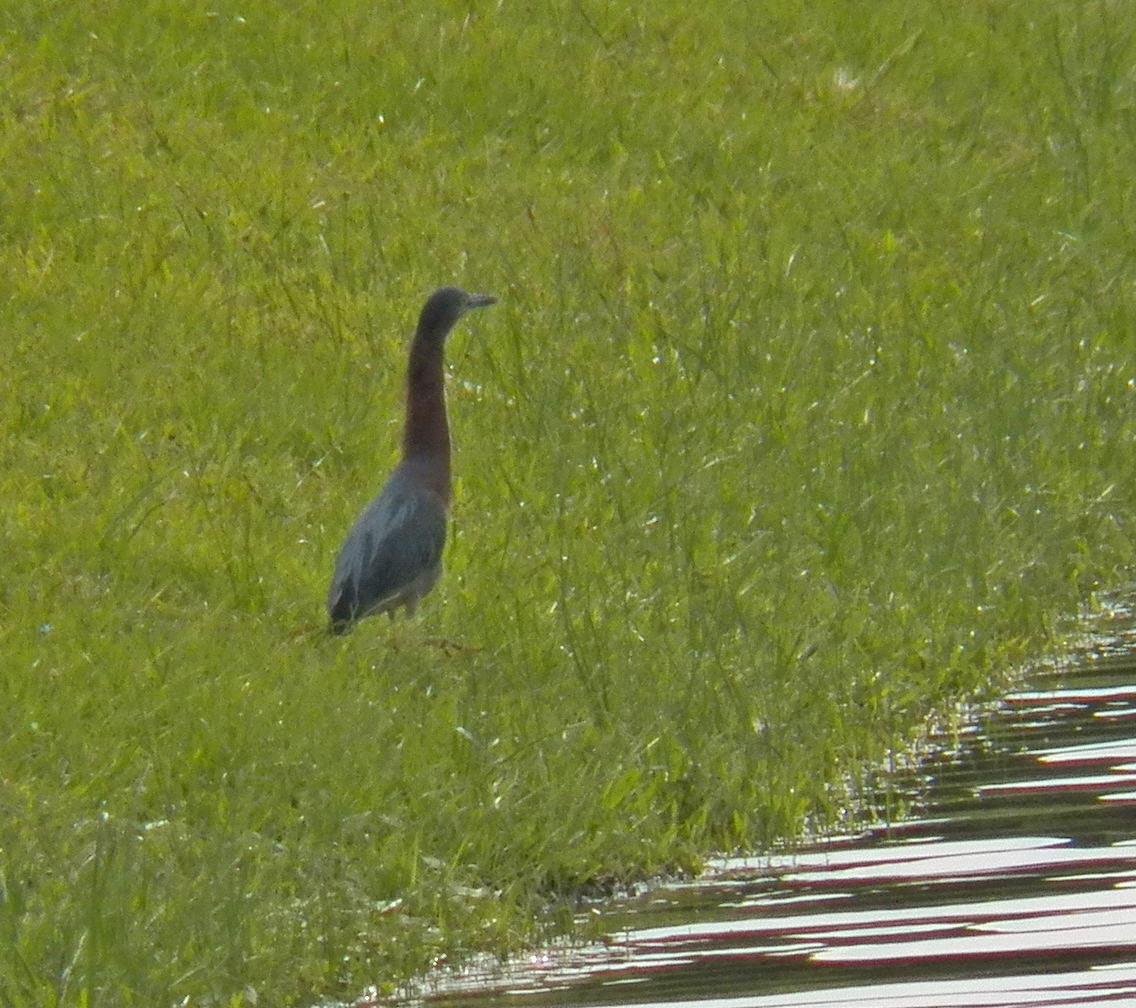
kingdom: Animalia
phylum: Chordata
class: Aves
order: Pelecaniformes
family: Ardeidae
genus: Butorides
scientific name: Butorides virescens
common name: Green heron
